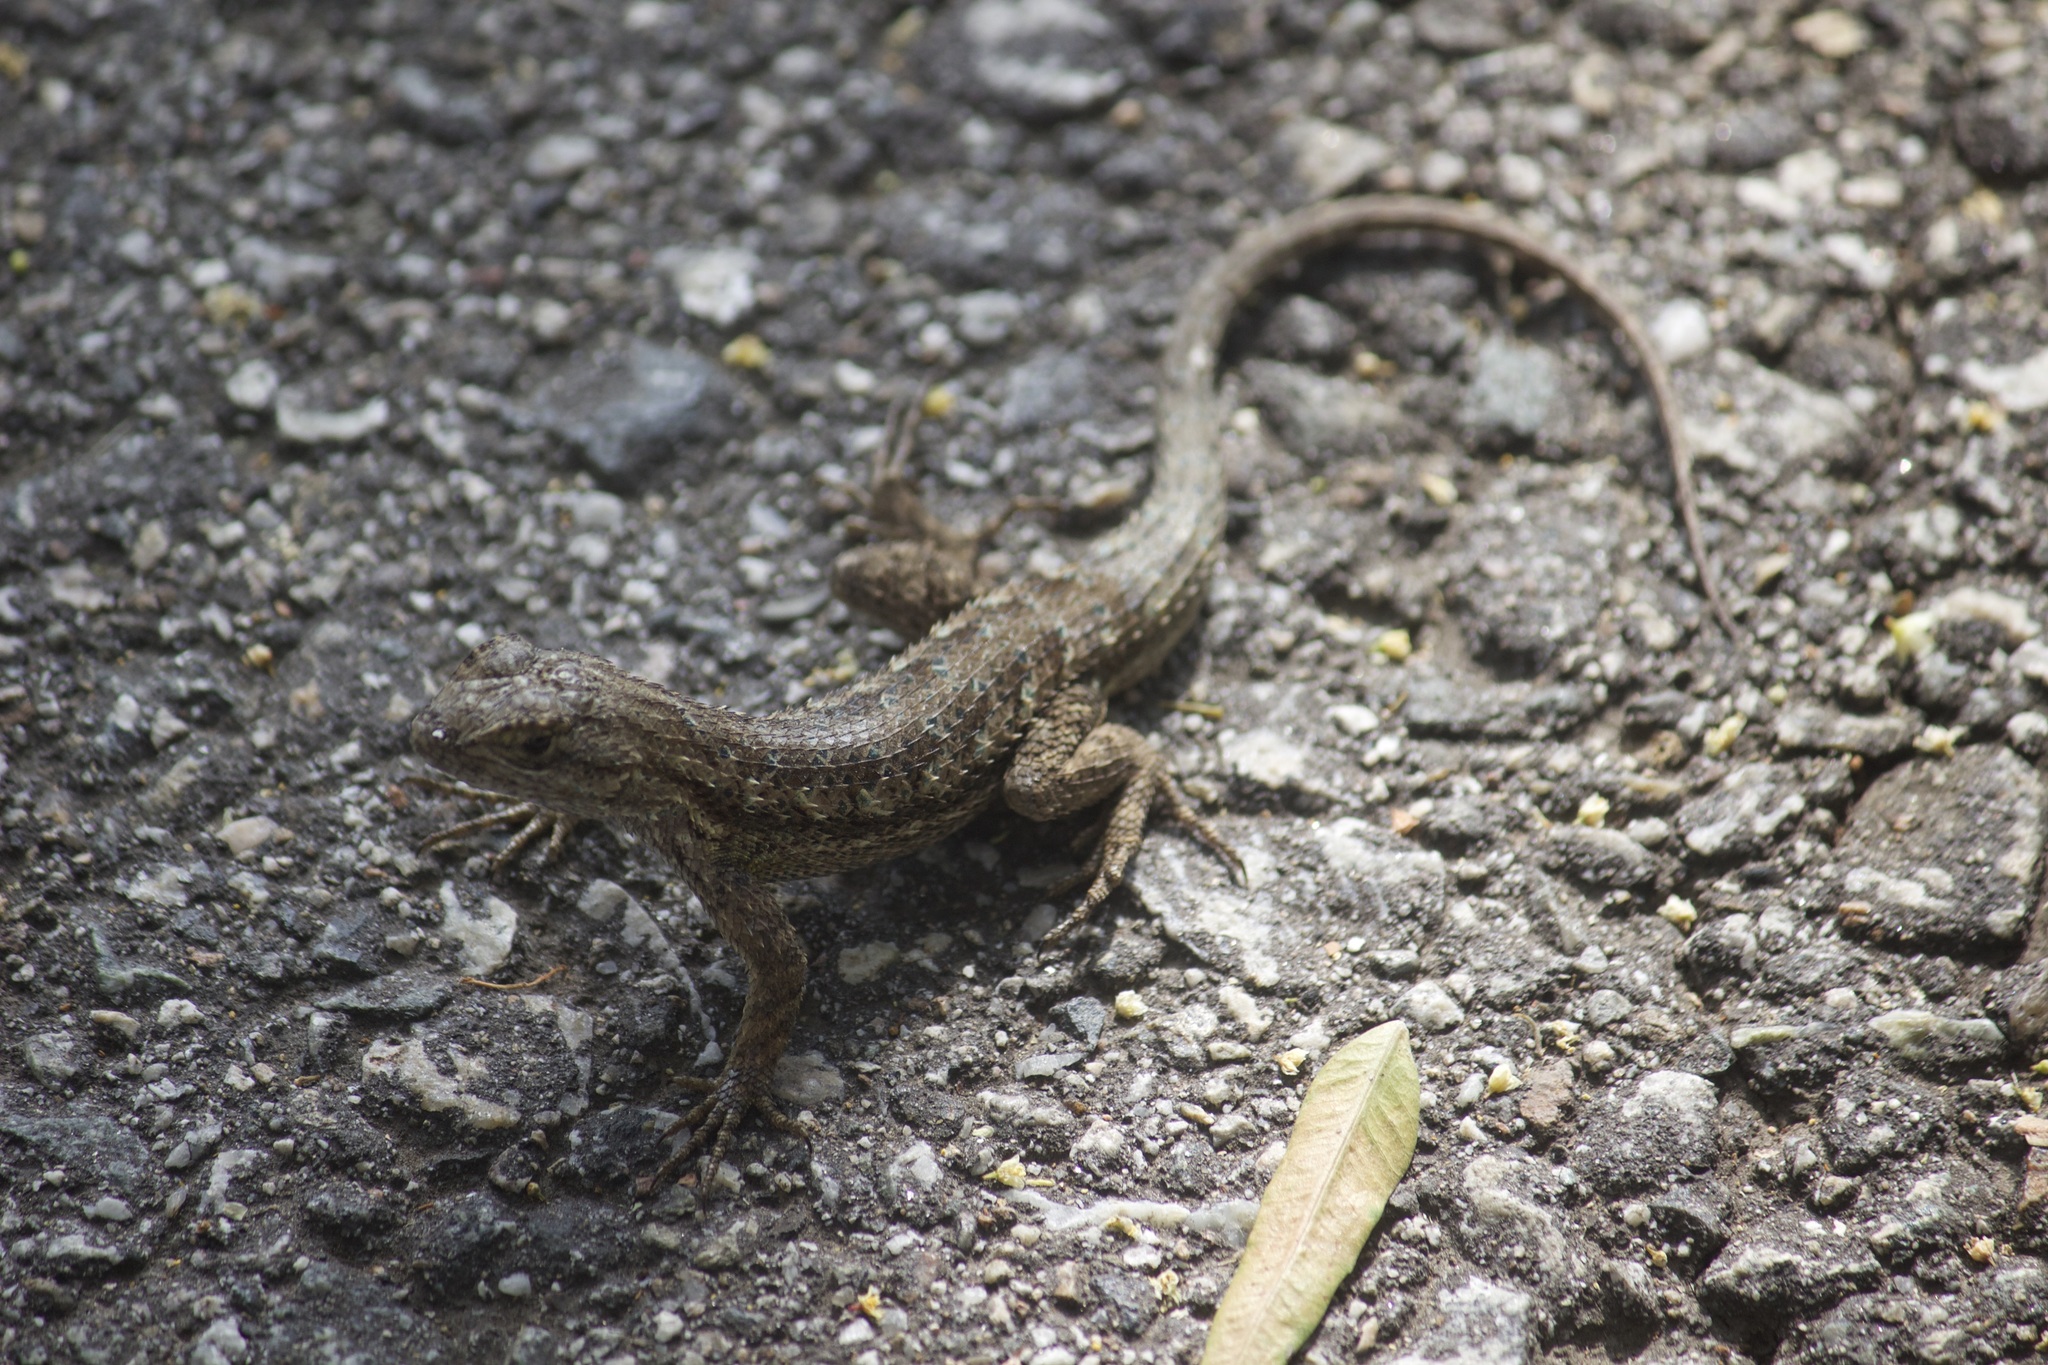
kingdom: Animalia
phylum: Chordata
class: Squamata
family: Phrynosomatidae
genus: Sceloporus
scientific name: Sceloporus occidentalis
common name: Western fence lizard
